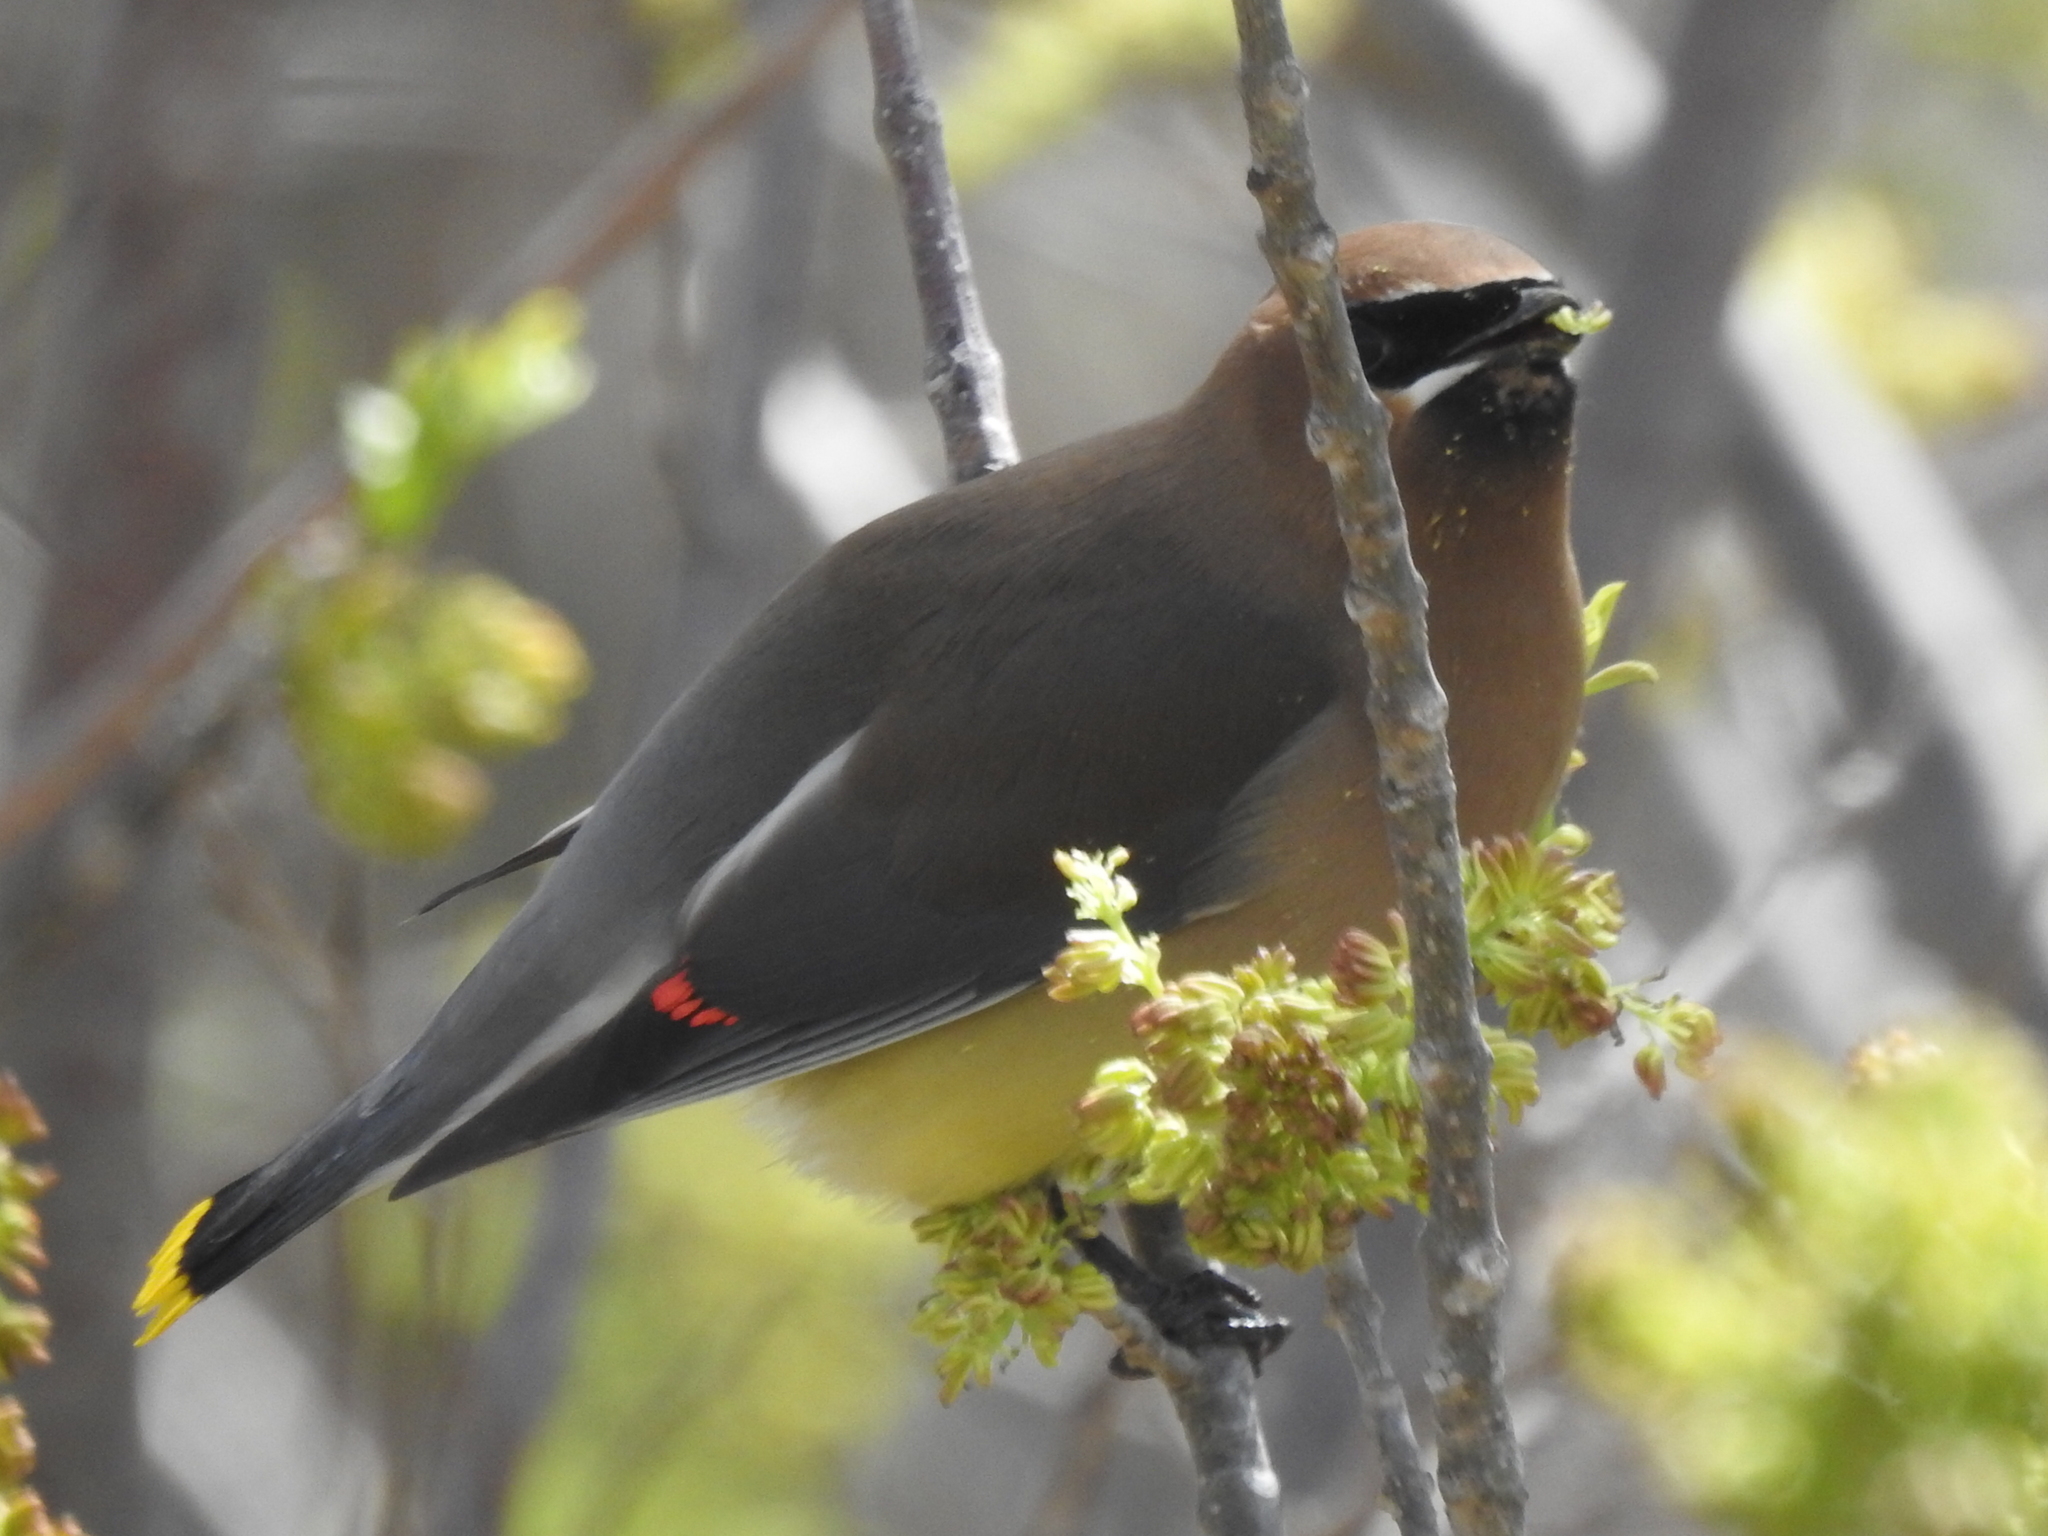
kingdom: Animalia
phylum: Chordata
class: Aves
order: Passeriformes
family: Bombycillidae
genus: Bombycilla
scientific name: Bombycilla cedrorum
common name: Cedar waxwing
